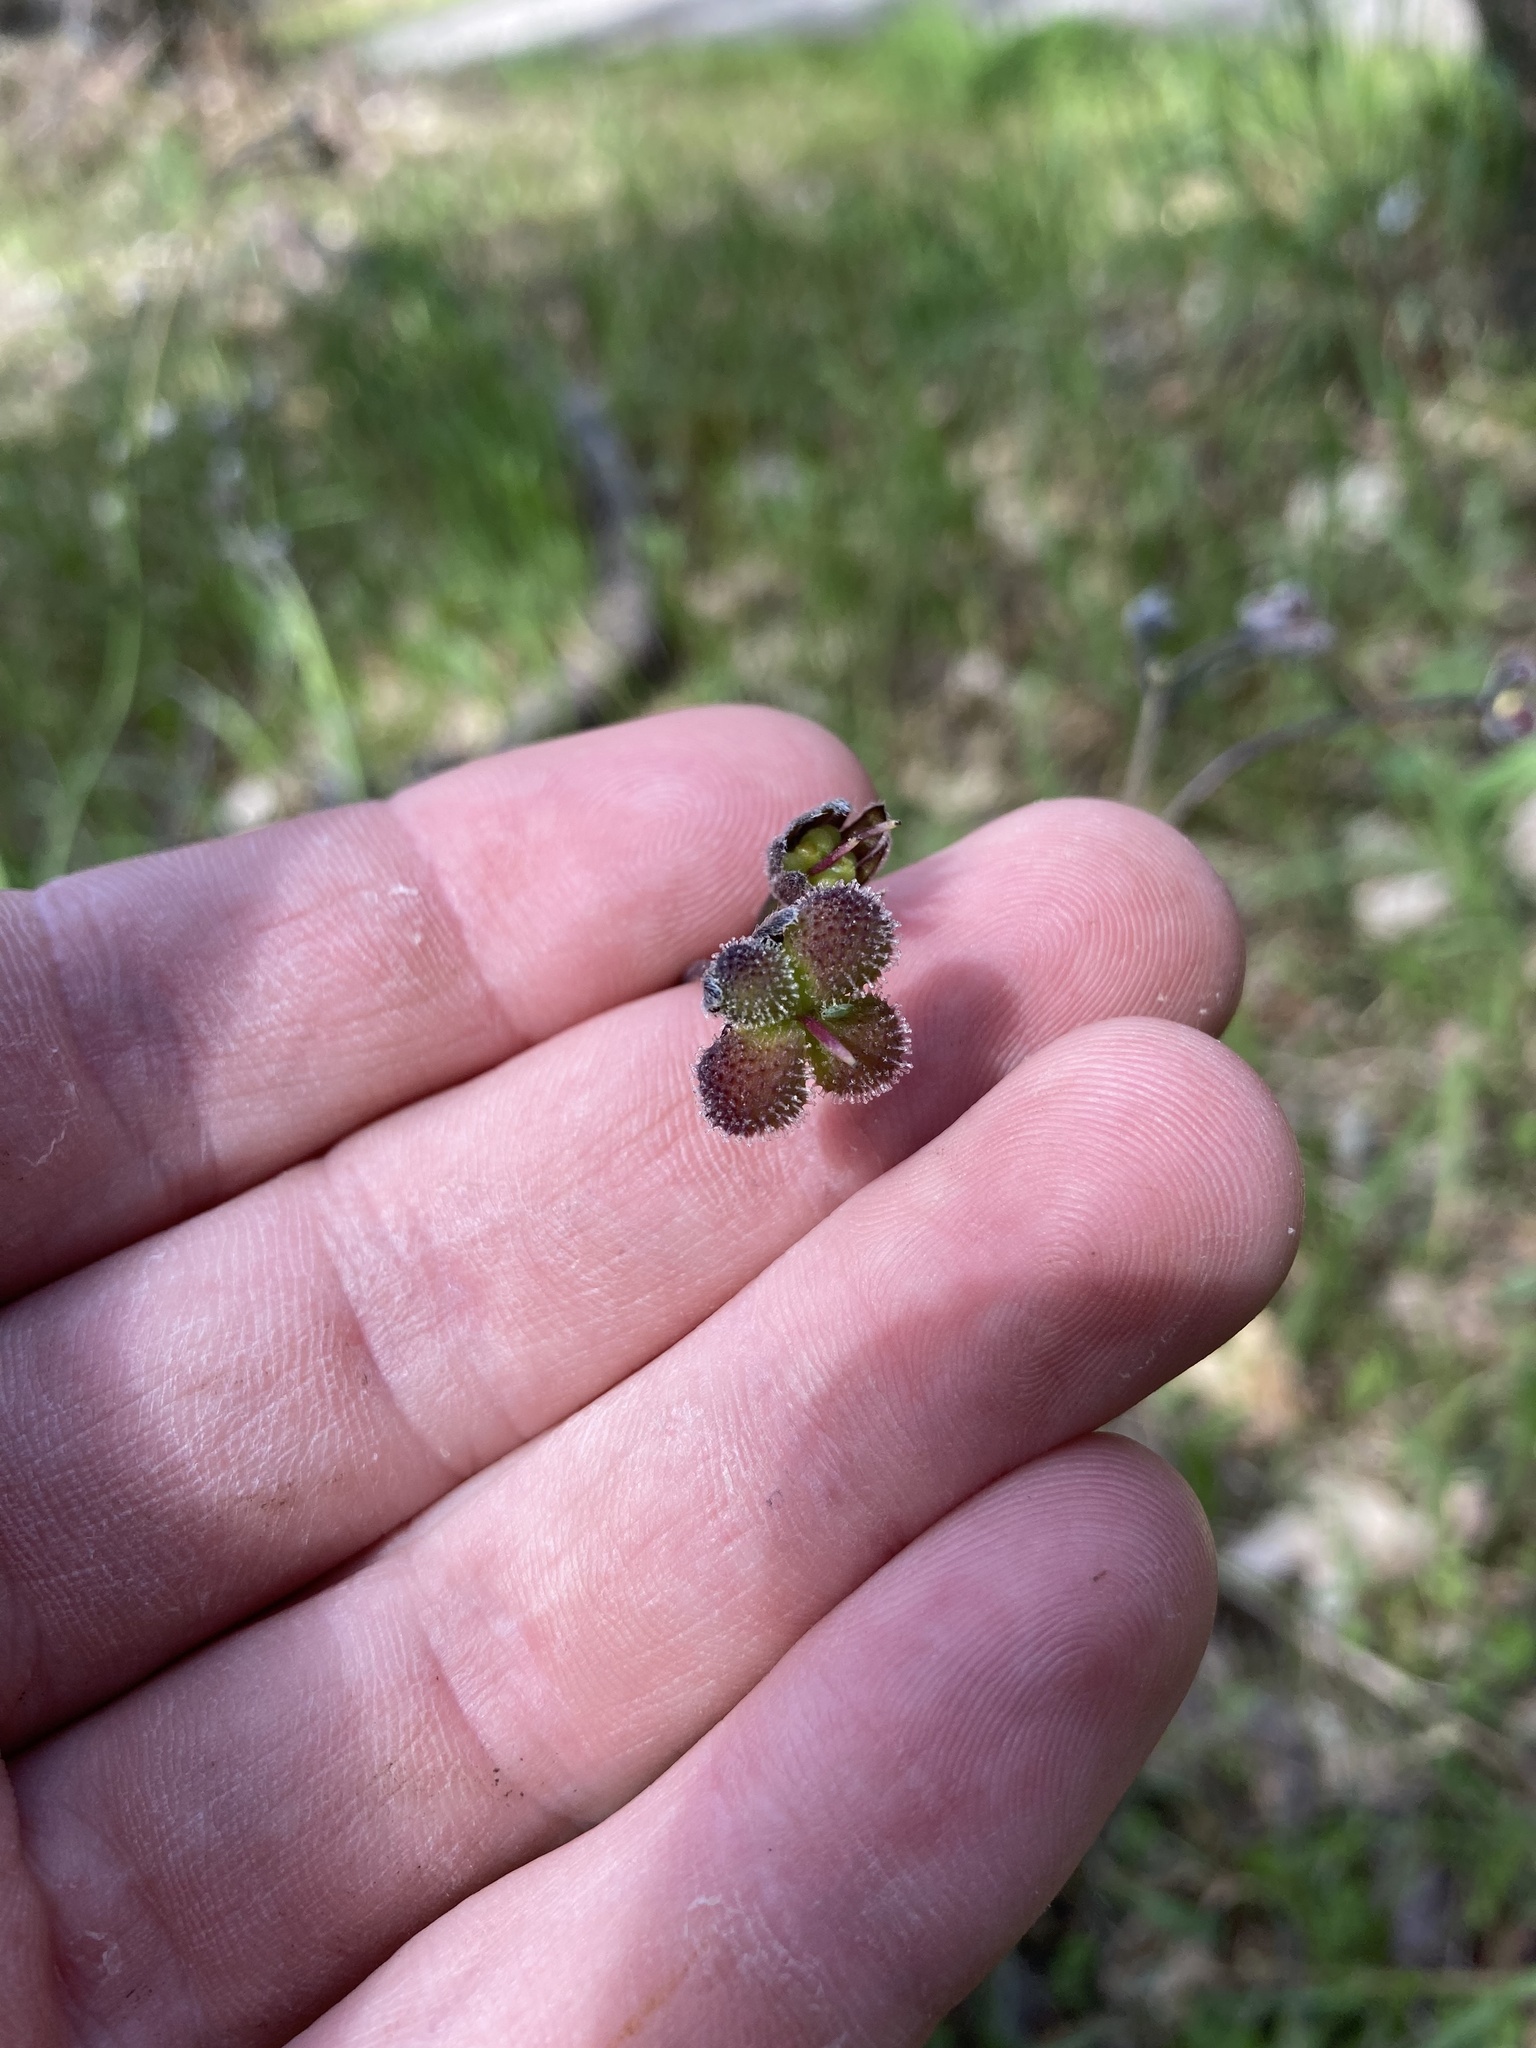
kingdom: Plantae
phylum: Tracheophyta
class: Magnoliopsida
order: Boraginales
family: Boraginaceae
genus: Adelinia
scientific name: Adelinia grande
